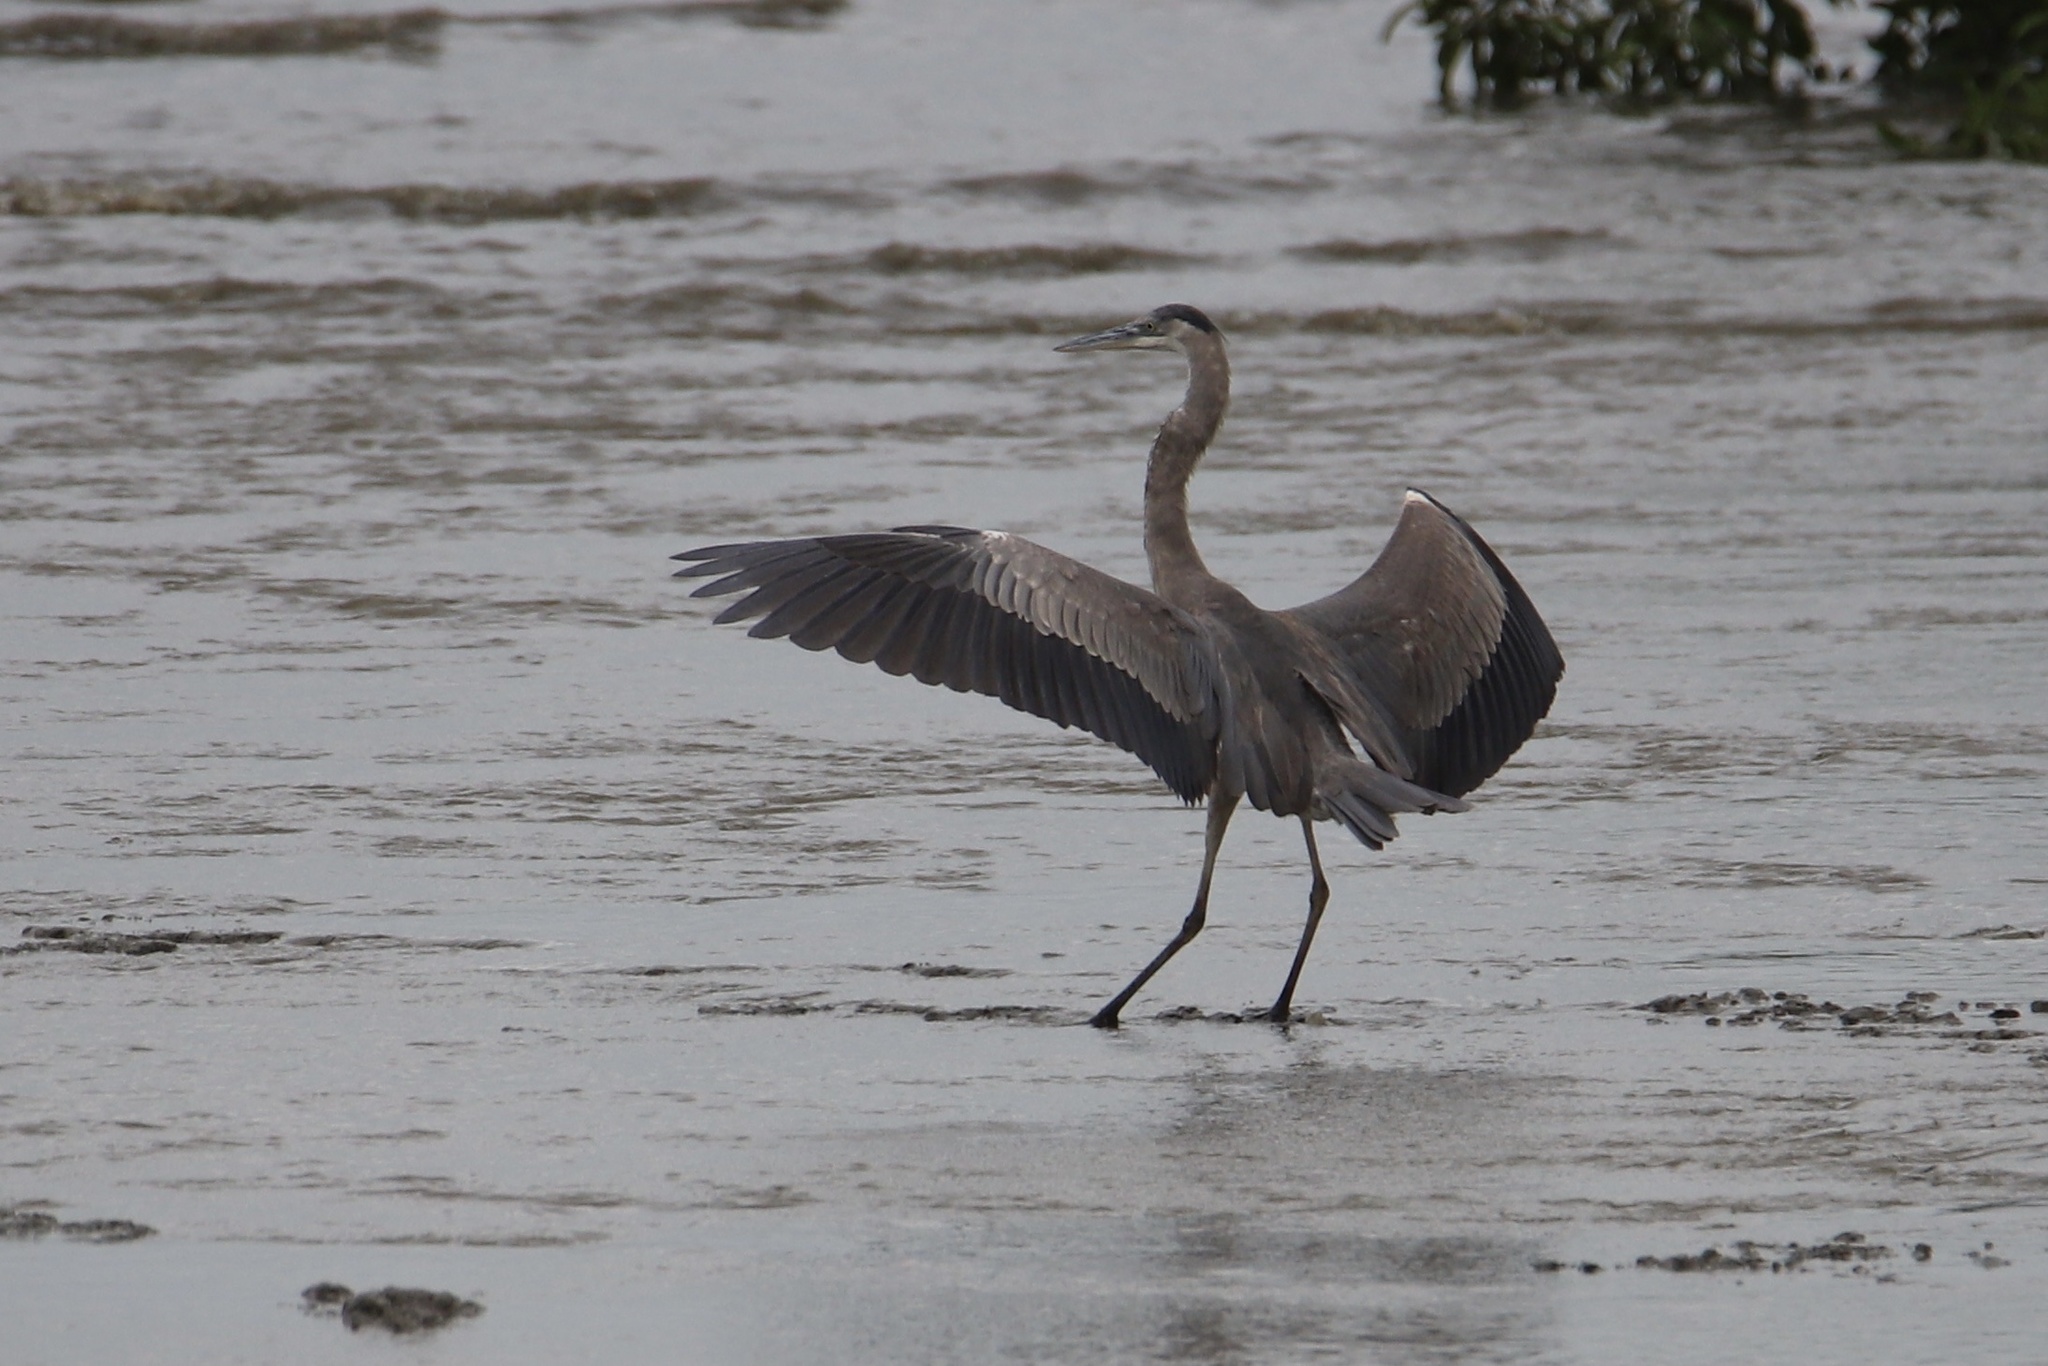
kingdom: Animalia
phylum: Chordata
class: Aves
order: Pelecaniformes
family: Ardeidae
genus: Ardea
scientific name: Ardea cocoi
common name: Cocoi heron
